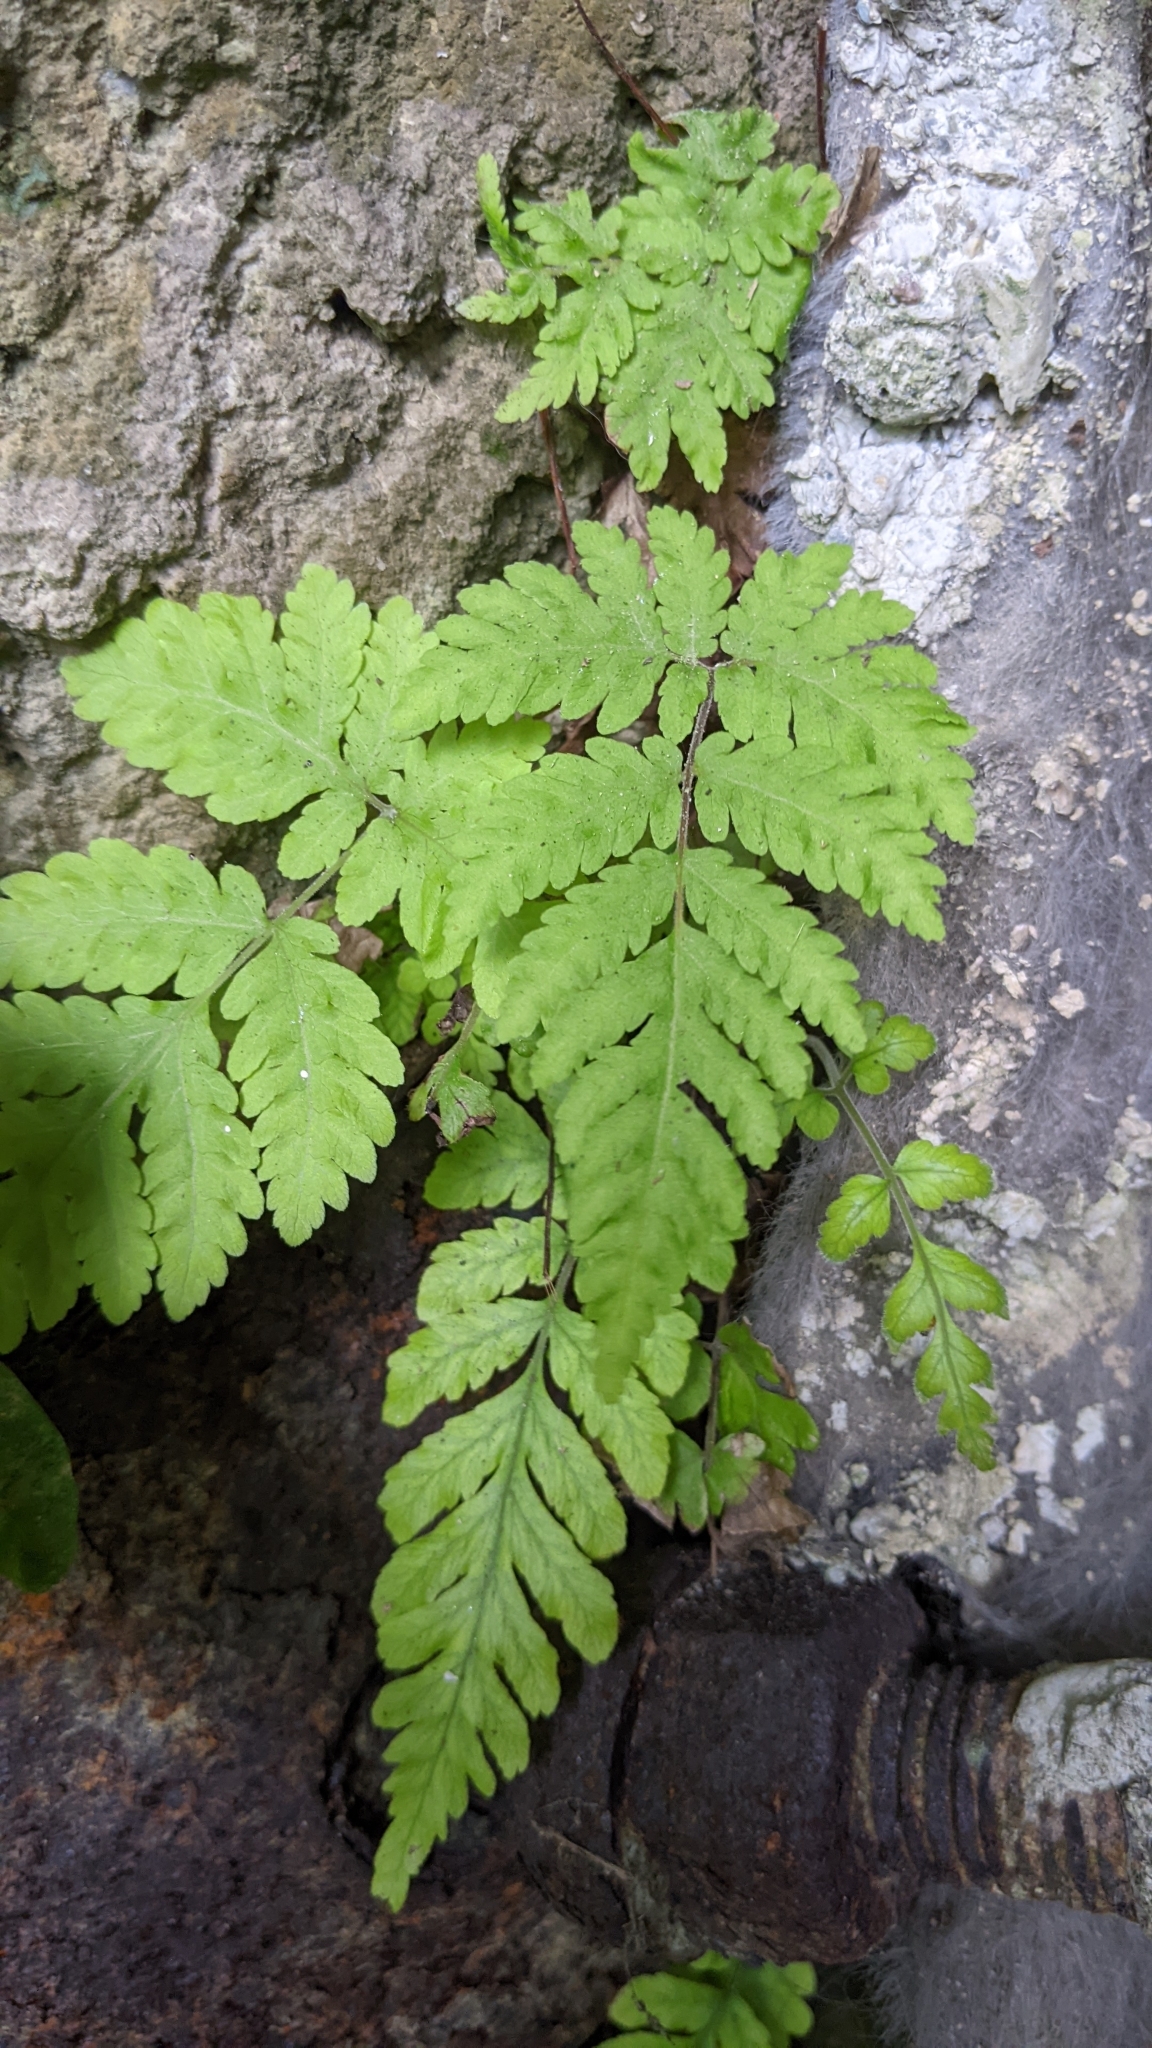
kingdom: Plantae
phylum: Tracheophyta
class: Polypodiopsida
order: Polypodiales
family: Tectariaceae
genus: Tectaria
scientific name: Tectaria membranacea
